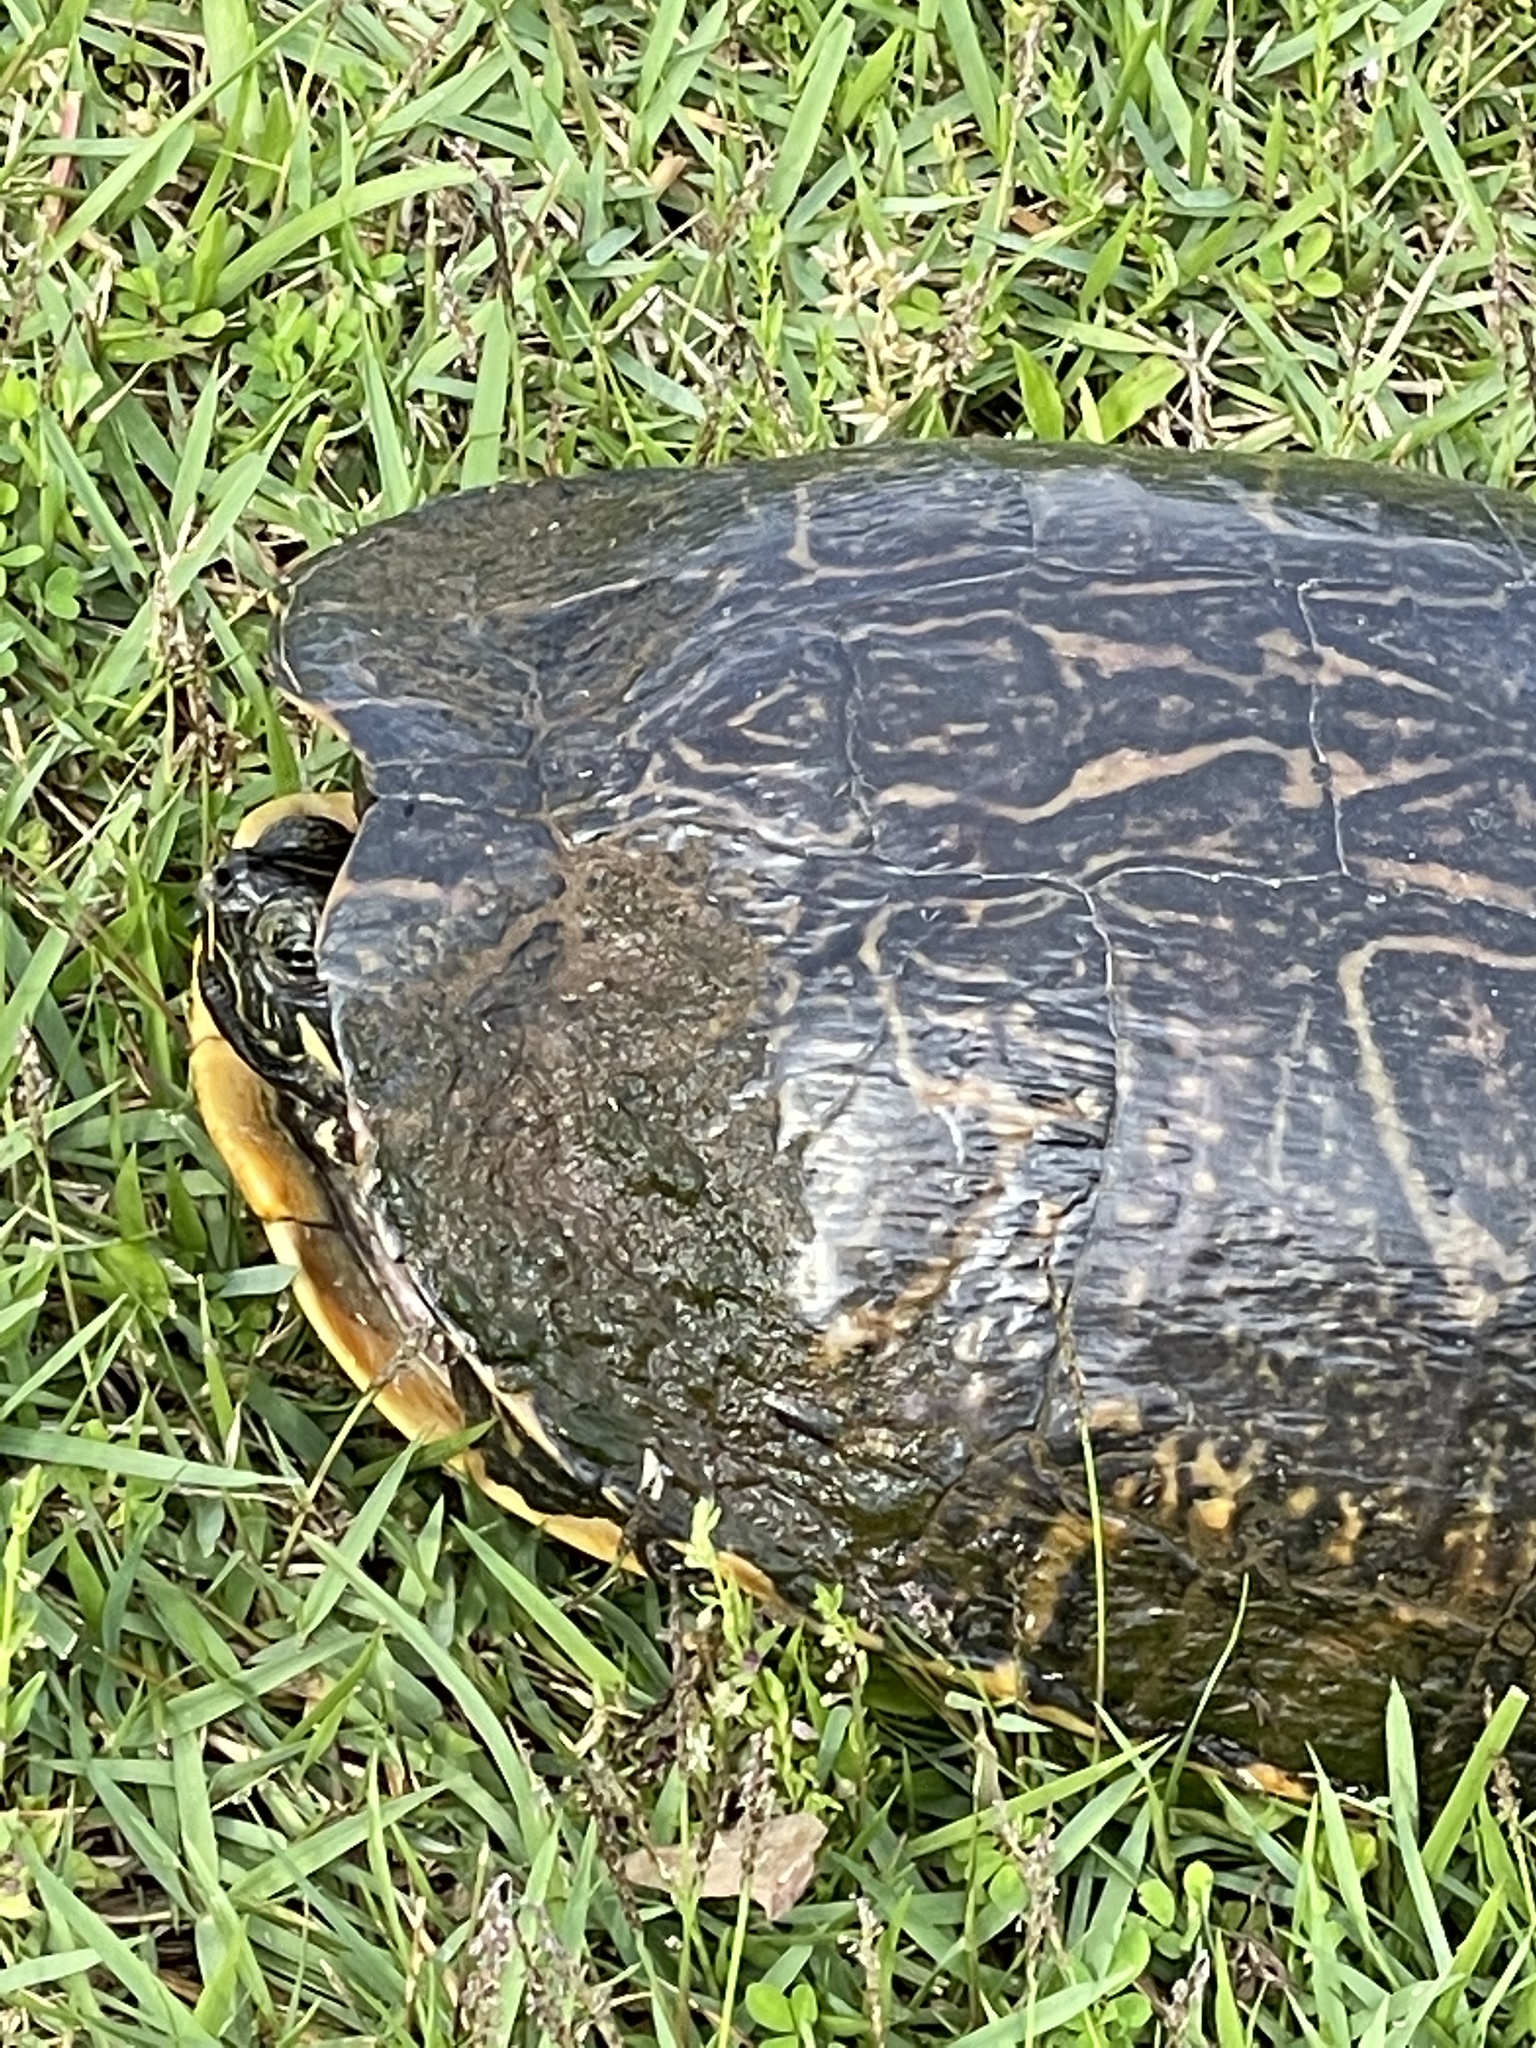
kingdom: Animalia
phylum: Chordata
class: Testudines
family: Emydidae
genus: Trachemys
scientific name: Trachemys scripta
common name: Slider
